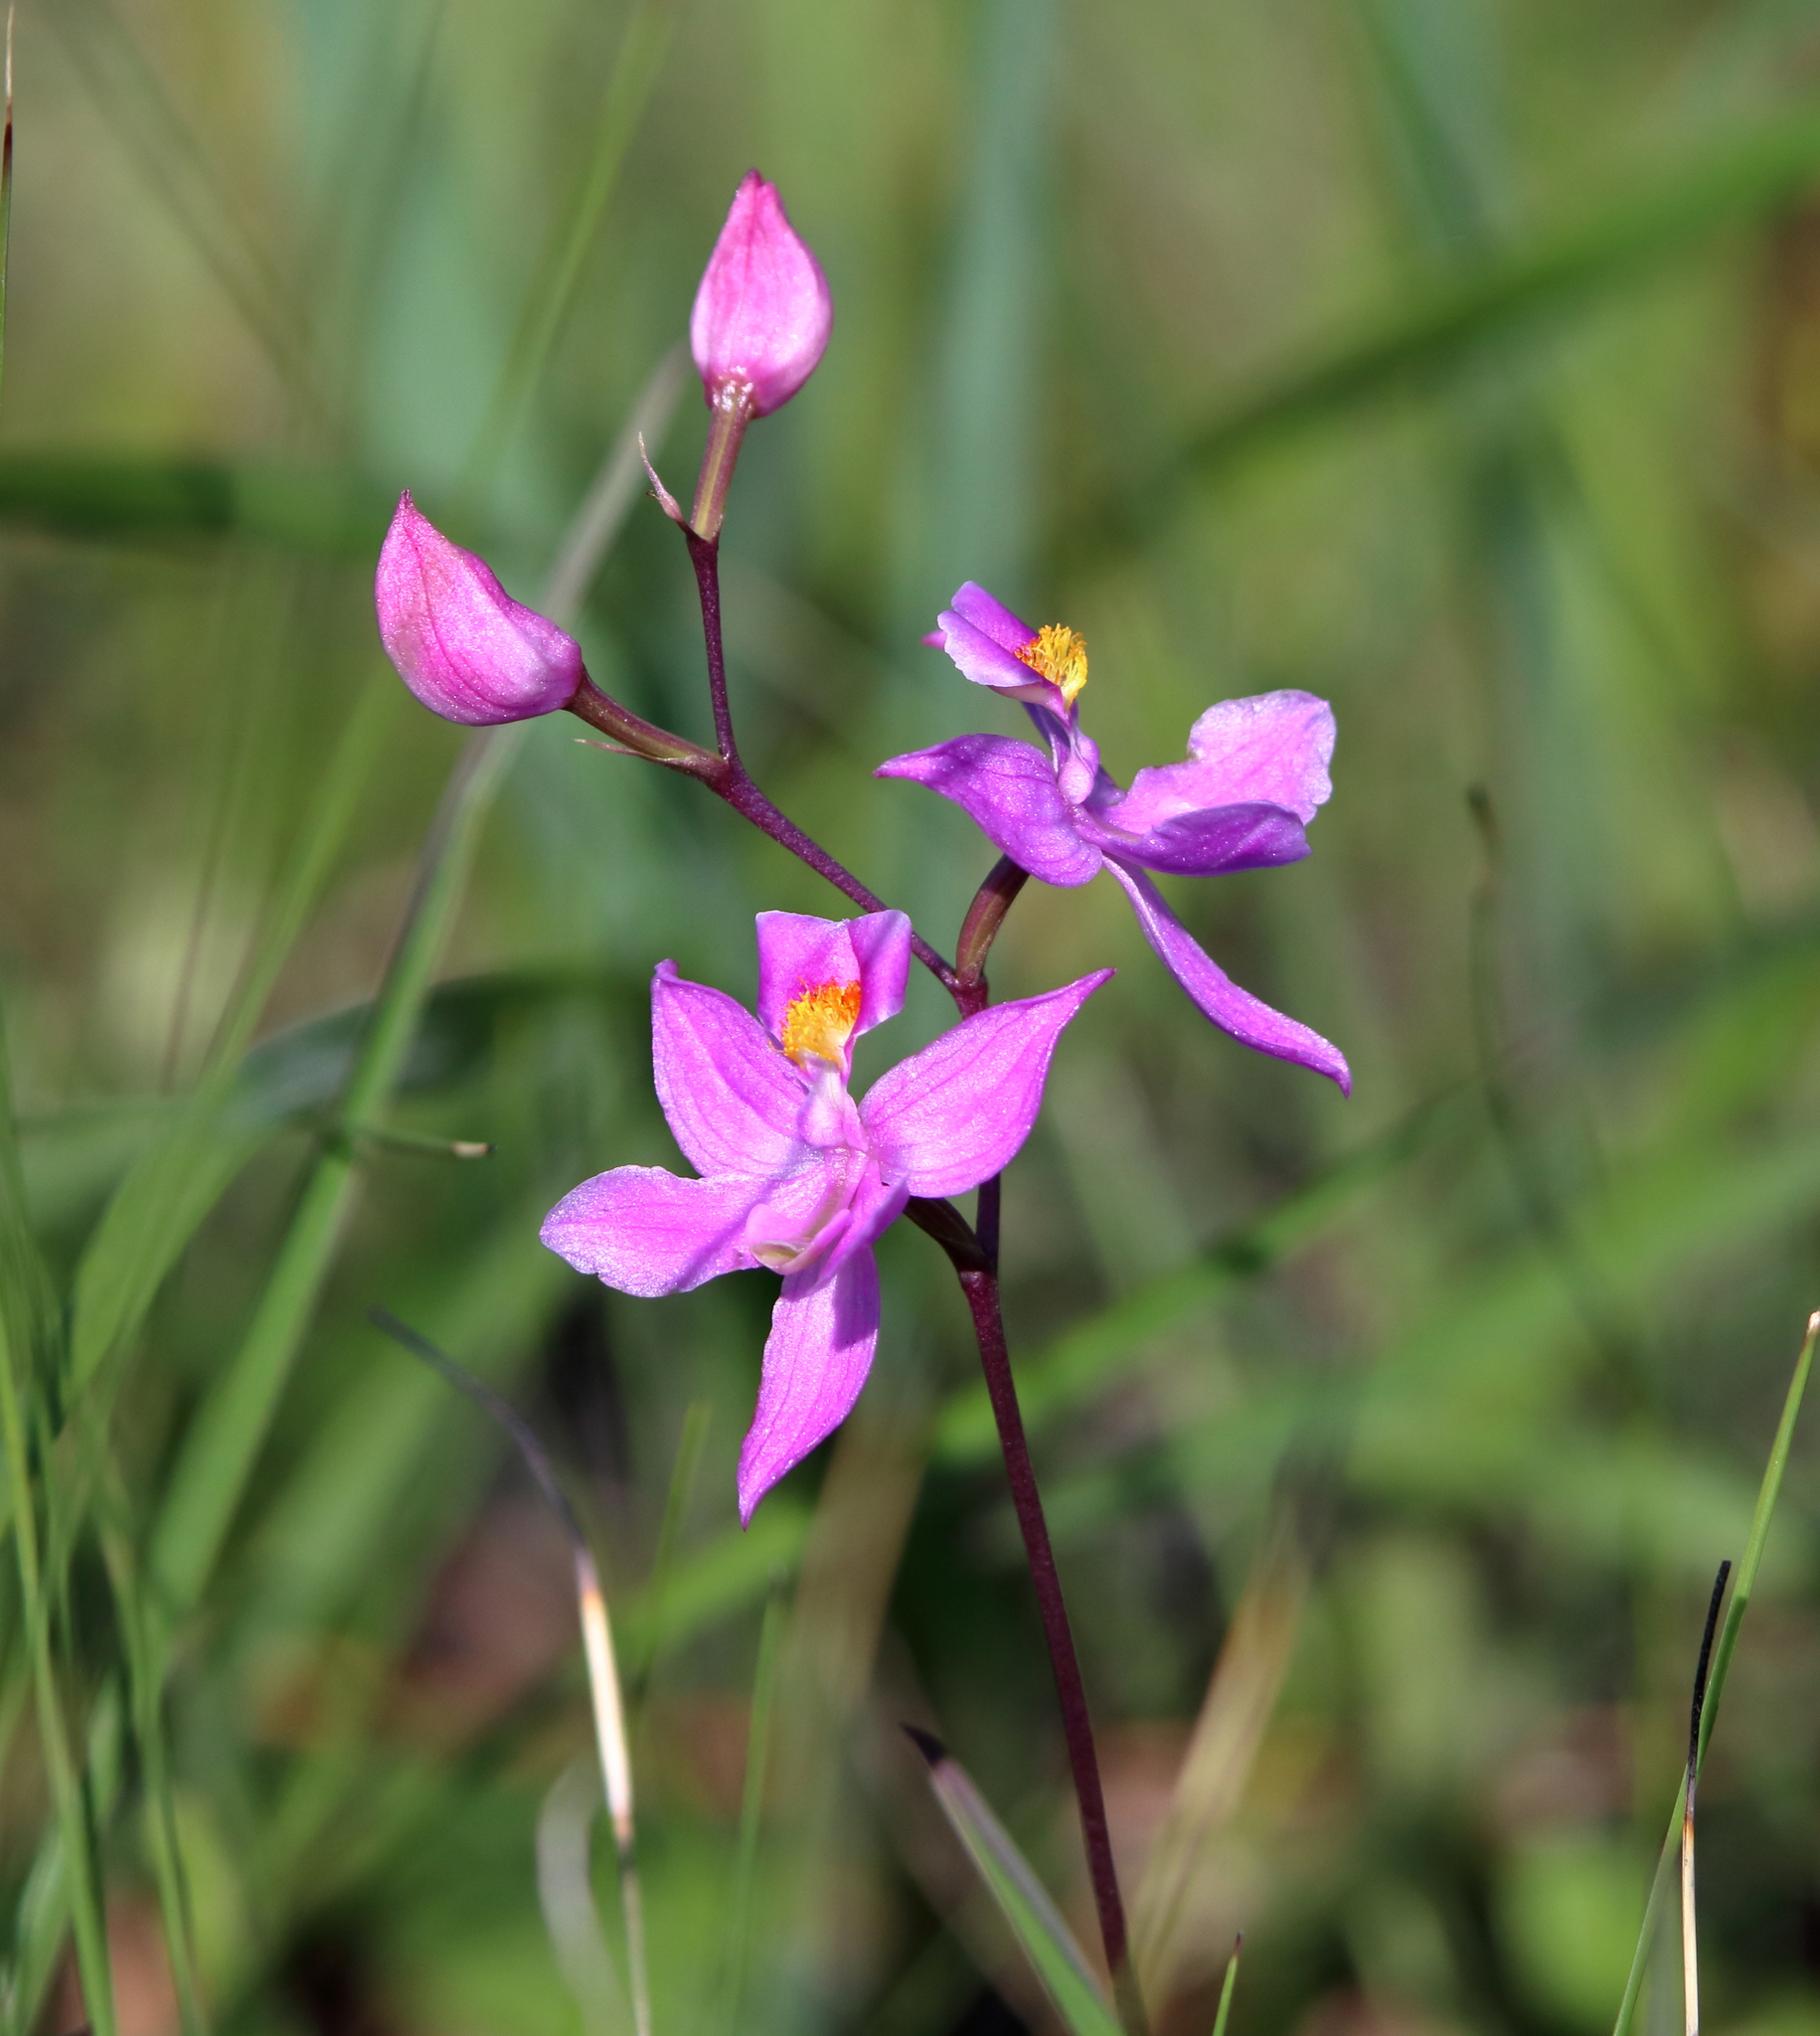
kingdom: Plantae
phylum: Tracheophyta
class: Liliopsida
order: Asparagales
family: Orchidaceae
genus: Calopogon
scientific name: Calopogon multiflorus
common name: Many-flowered grass-pink orchid
